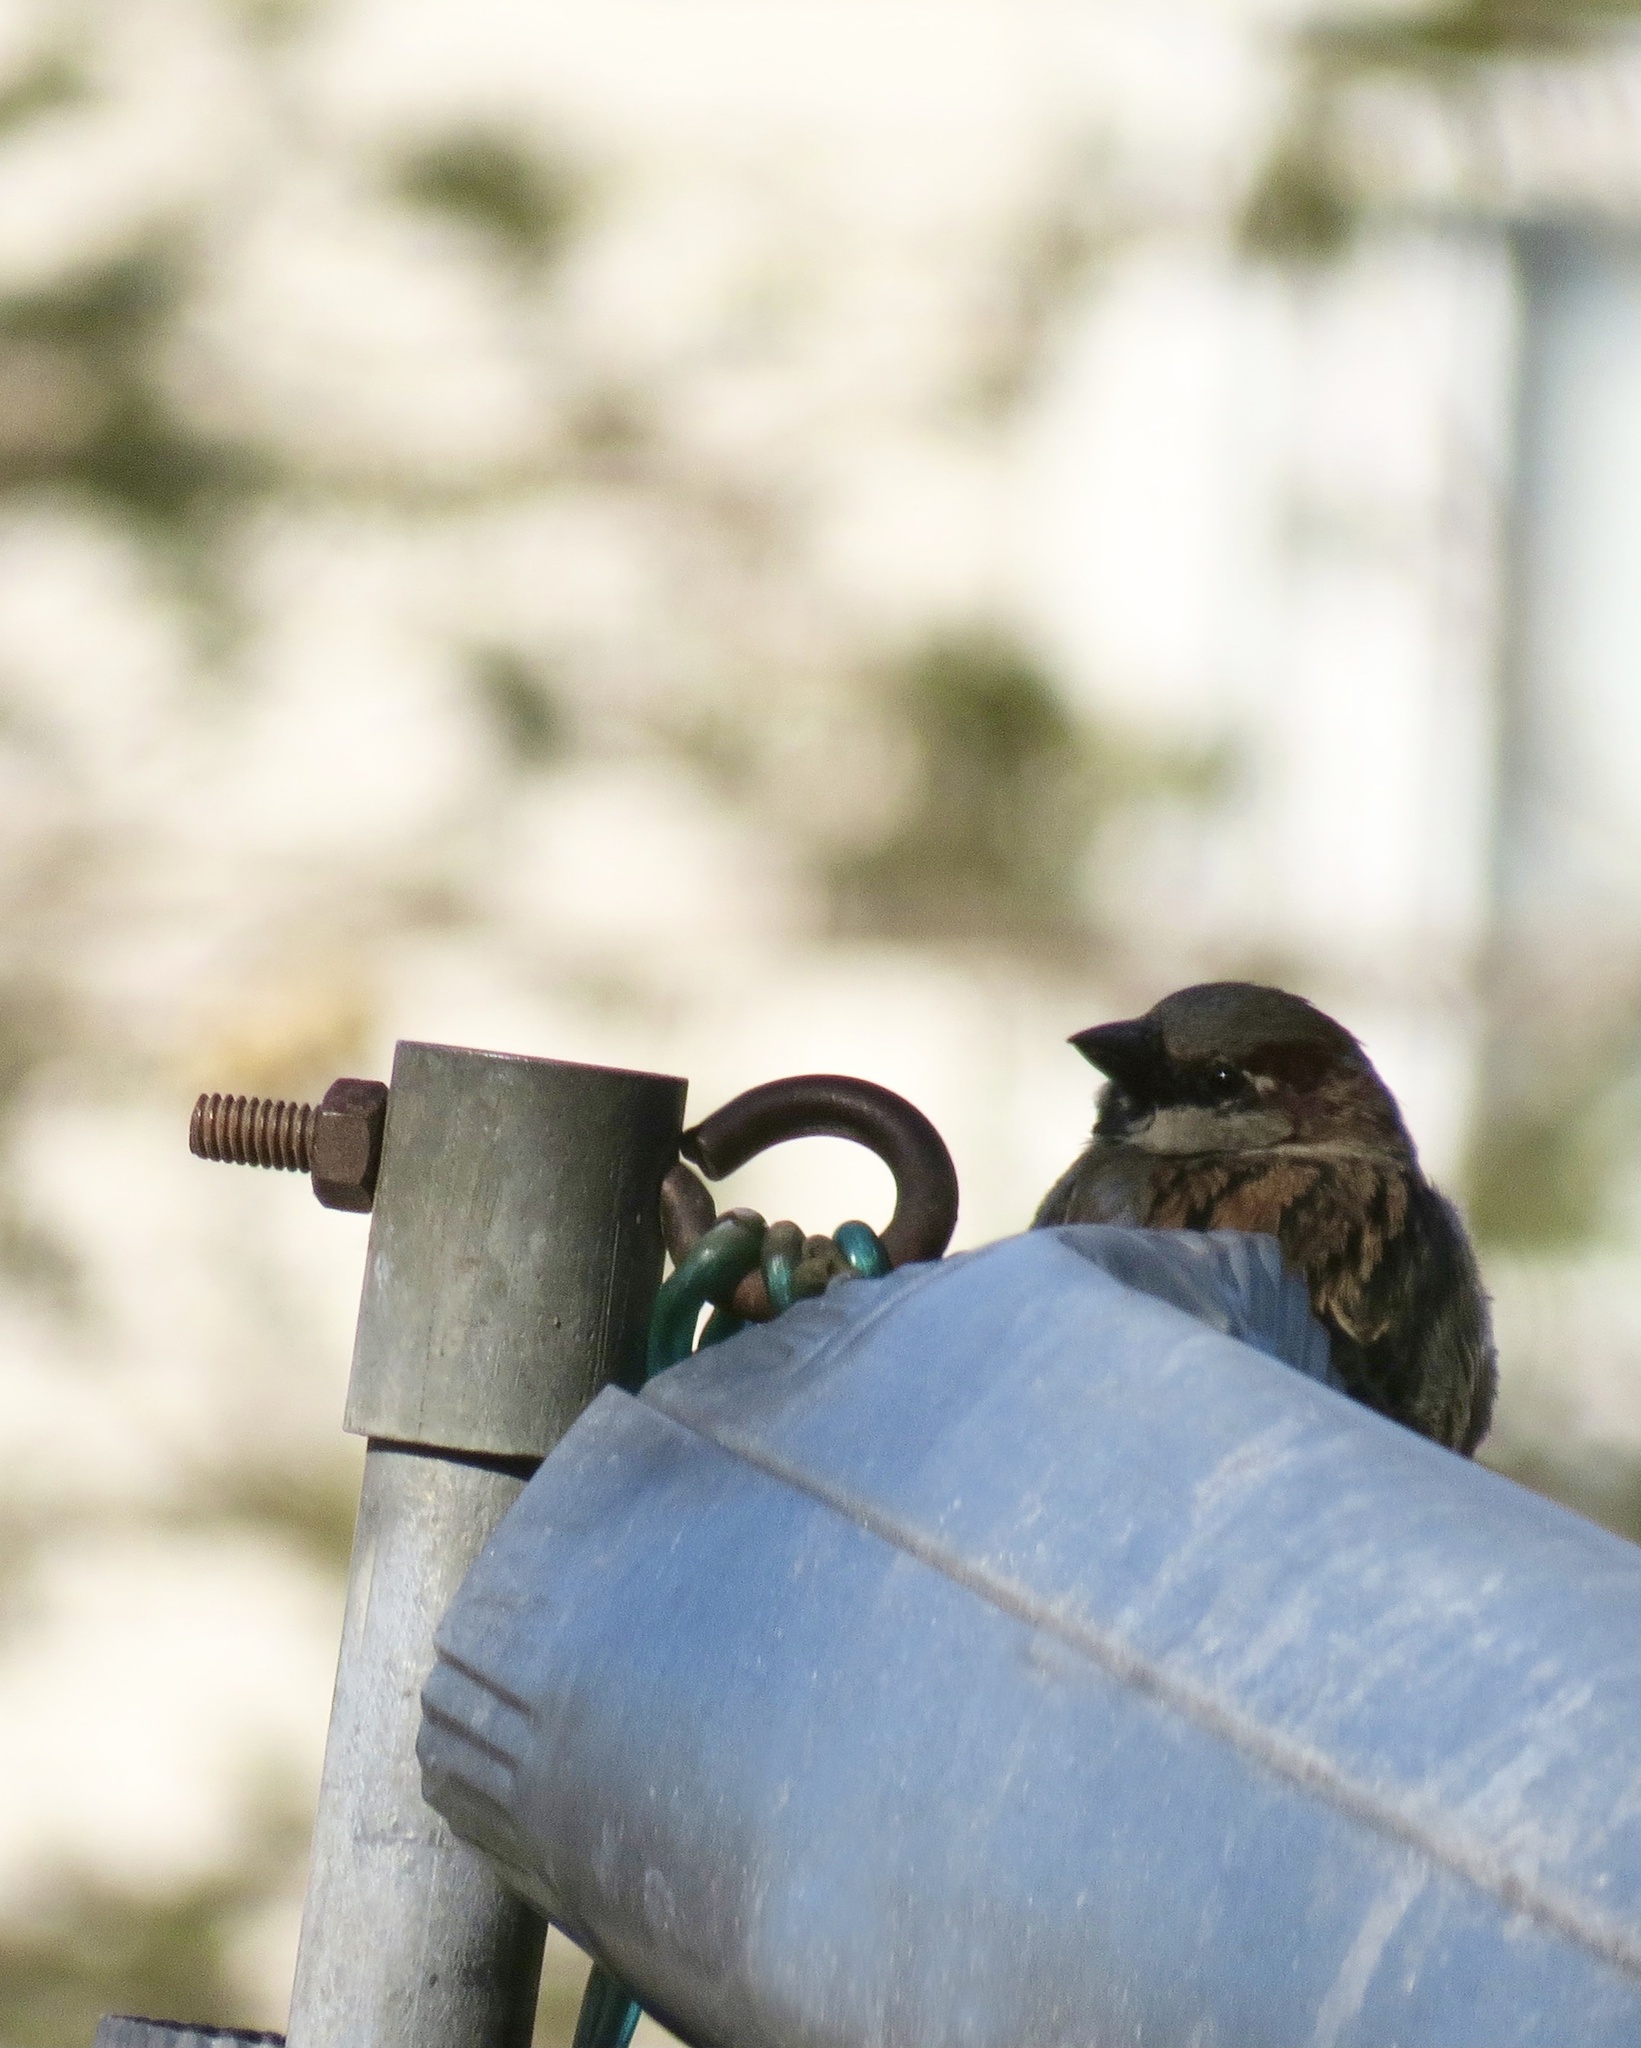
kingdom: Animalia
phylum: Chordata
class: Aves
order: Passeriformes
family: Passeridae
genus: Passer
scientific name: Passer domesticus
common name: House sparrow
